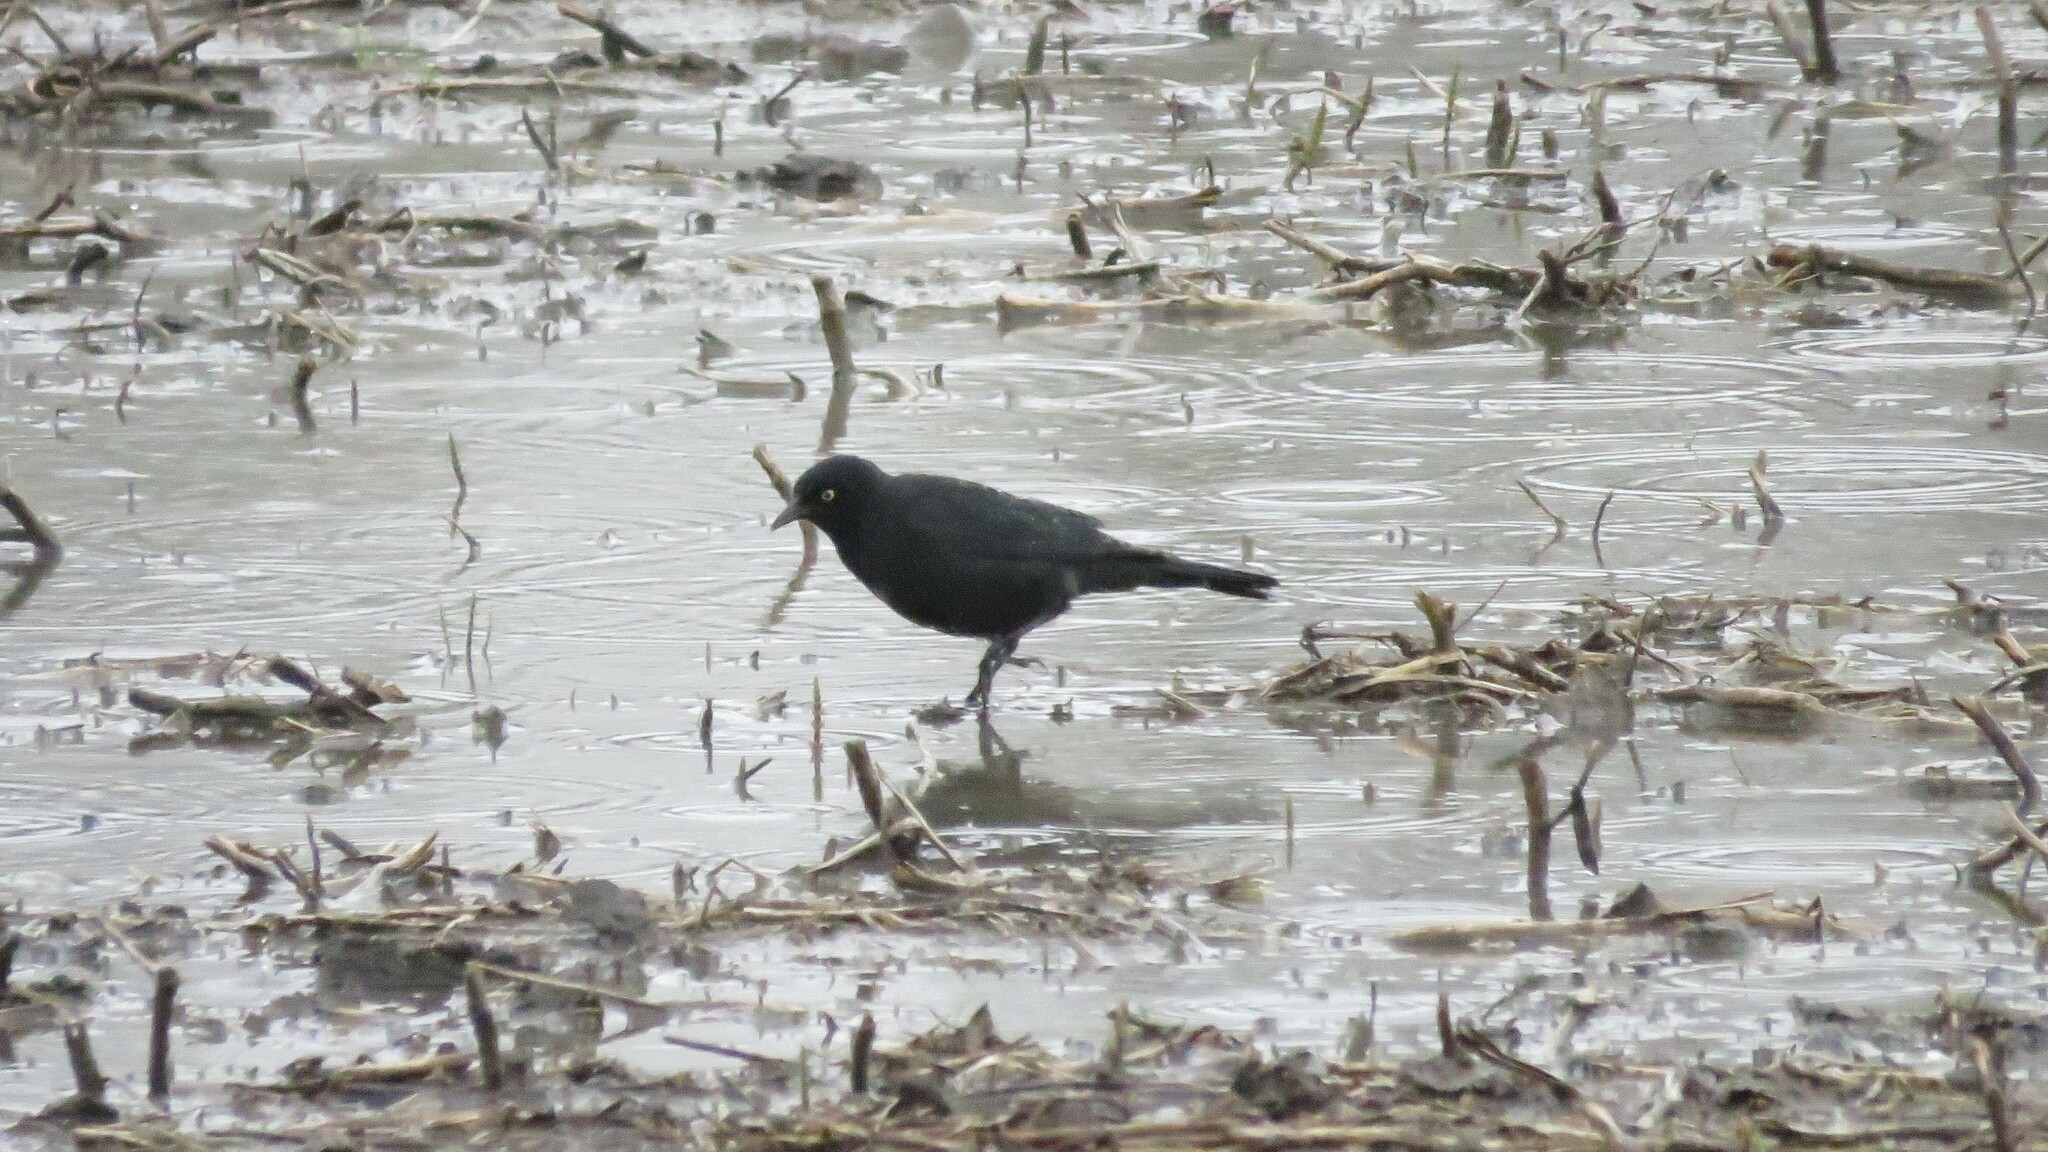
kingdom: Animalia
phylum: Chordata
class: Aves
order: Passeriformes
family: Icteridae
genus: Euphagus
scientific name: Euphagus carolinus
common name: Rusty blackbird
